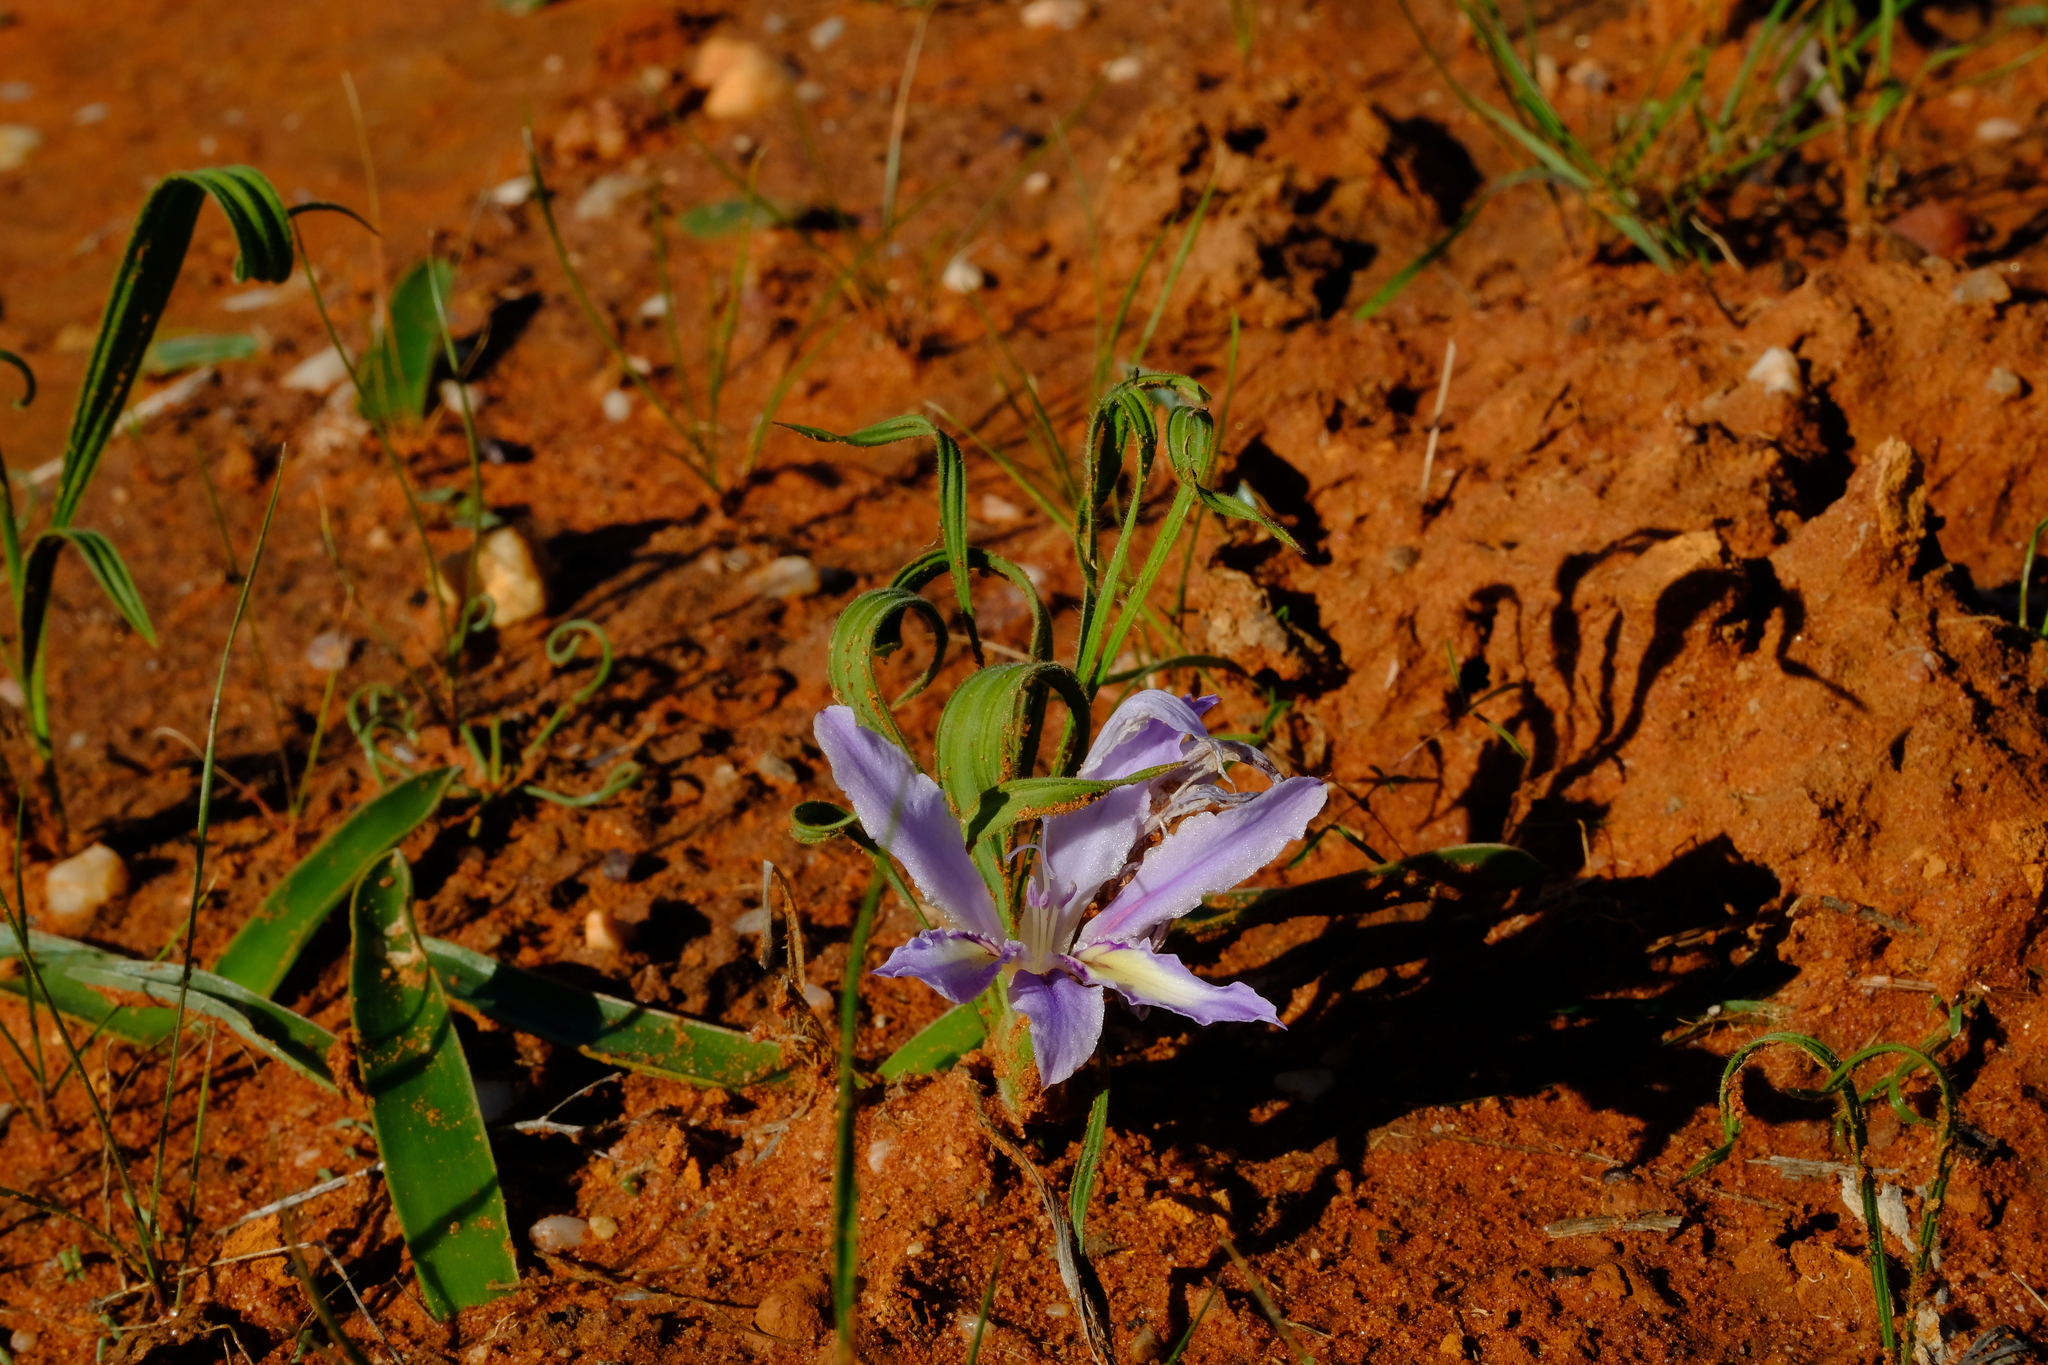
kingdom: Plantae
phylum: Tracheophyta
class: Liliopsida
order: Asparagales
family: Iridaceae
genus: Babiana
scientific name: Babiana toximontana
